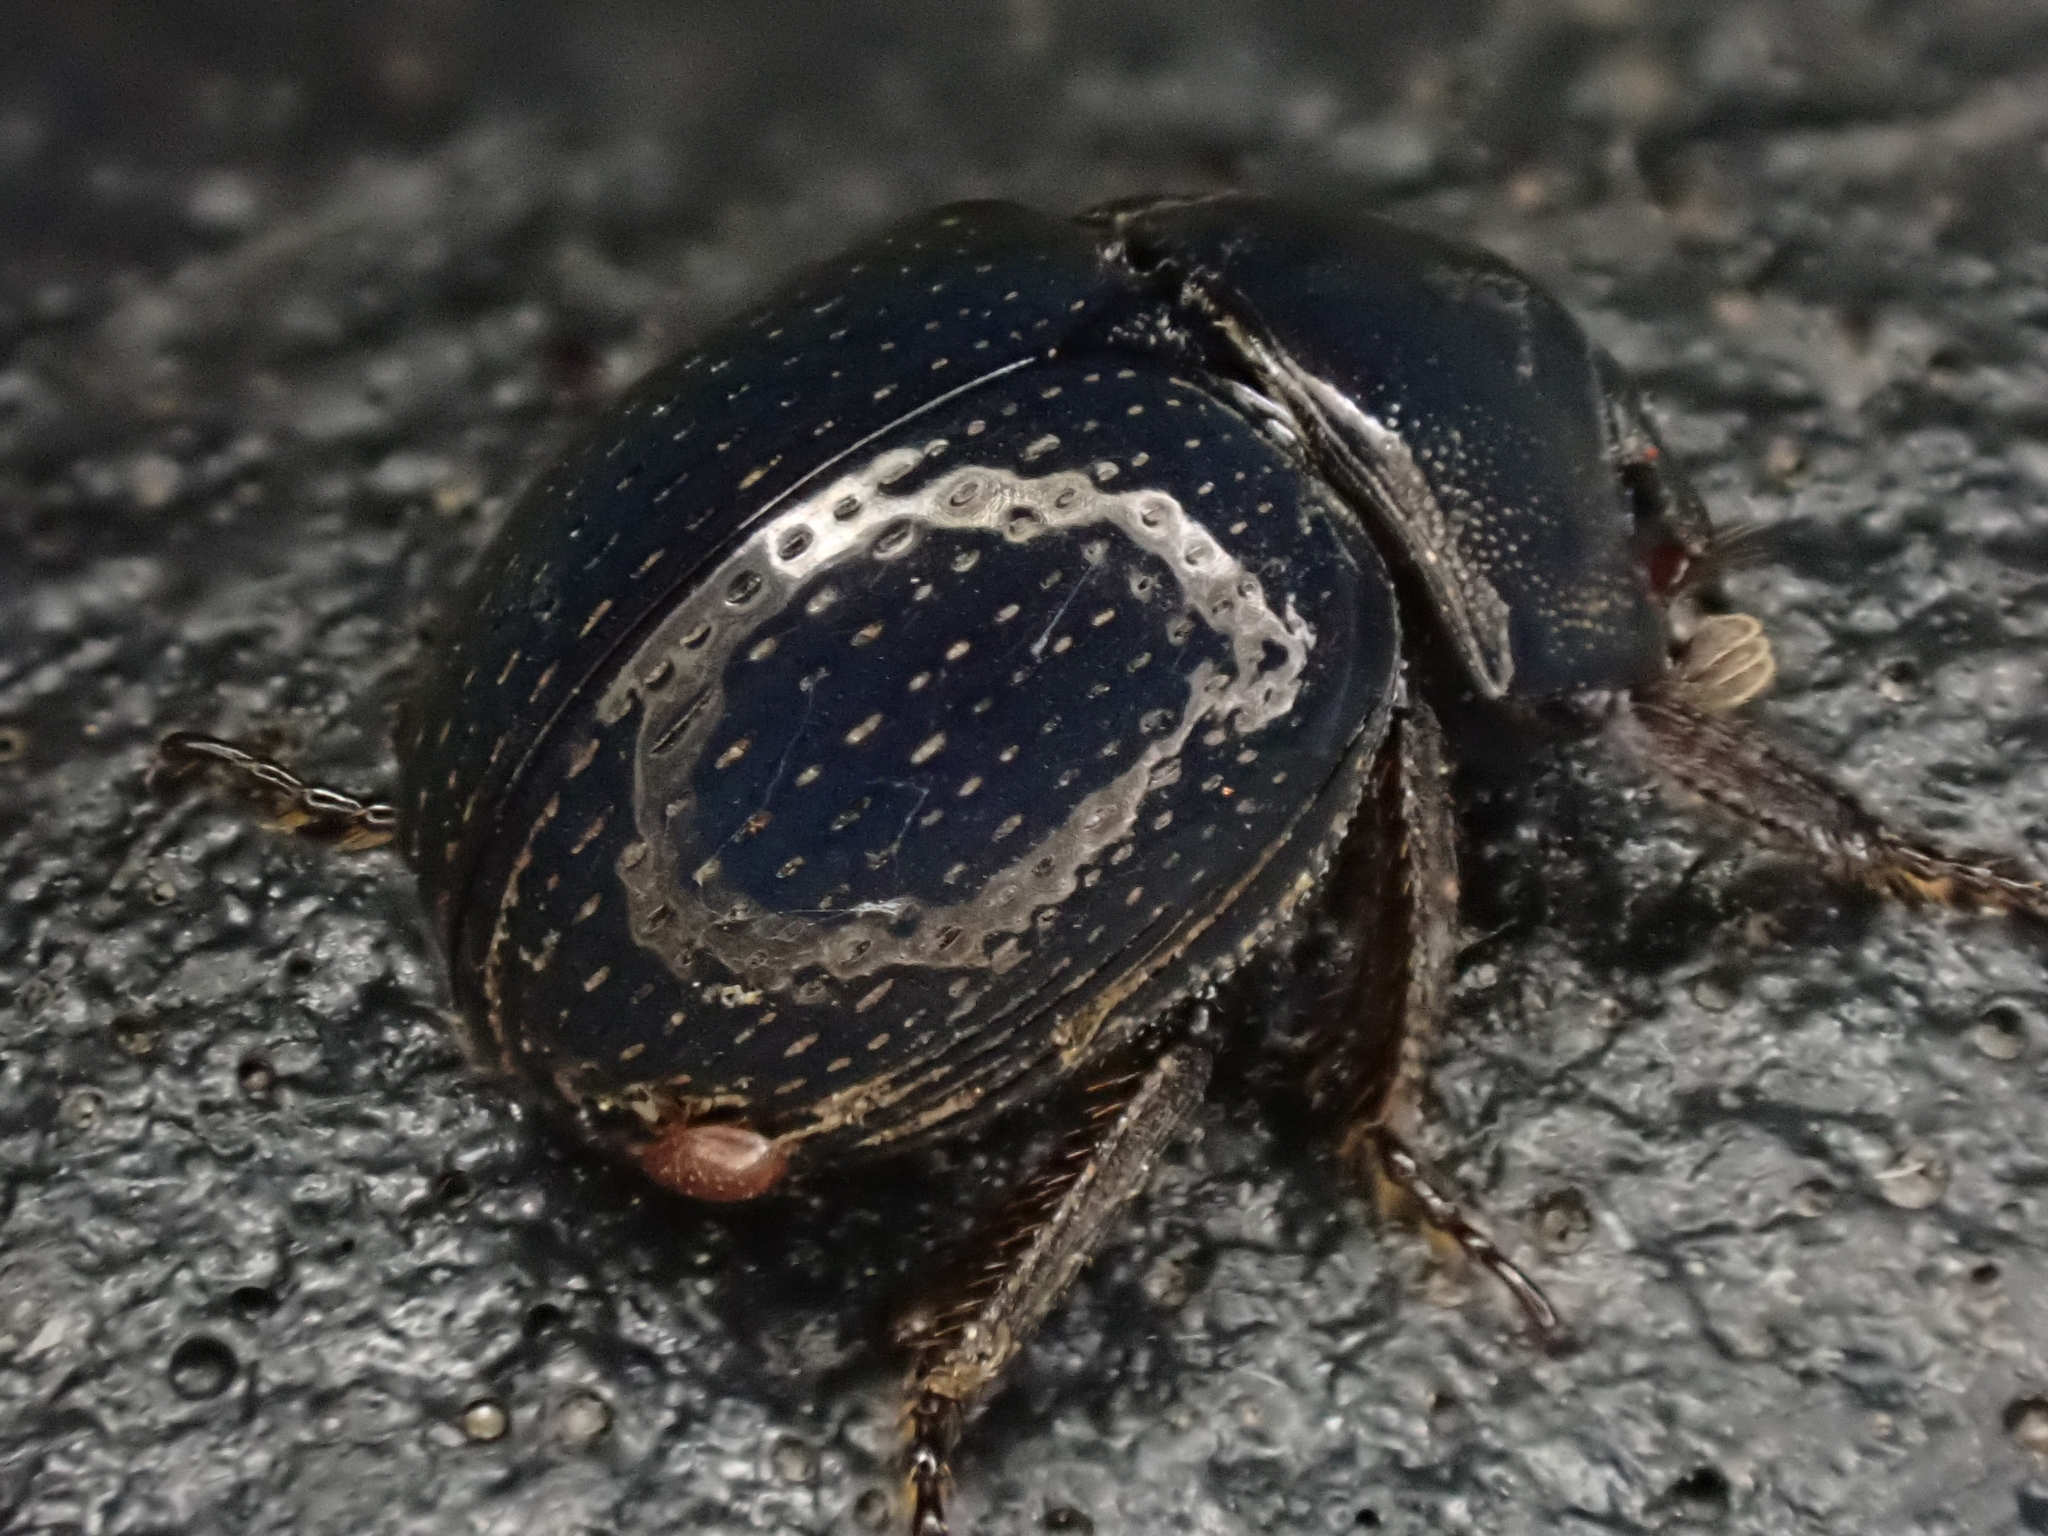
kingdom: Animalia
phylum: Arthropoda
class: Insecta
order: Coleoptera
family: Hybosoridae
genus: Germarostes
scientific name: Germarostes globosus
